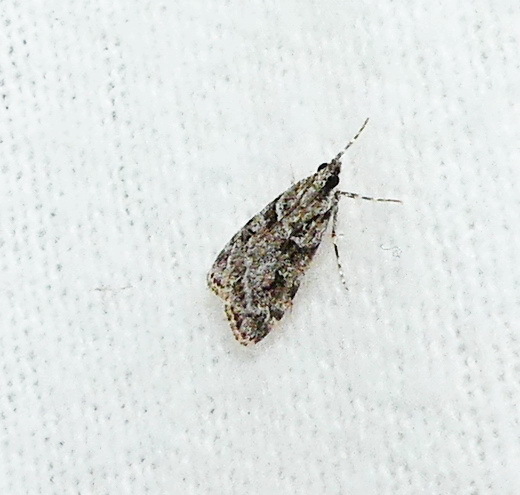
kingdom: Animalia
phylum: Arthropoda
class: Insecta
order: Lepidoptera
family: Crambidae
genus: Scoparia
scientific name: Scoparia biplagialis
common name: Double-striped scoparia moth
